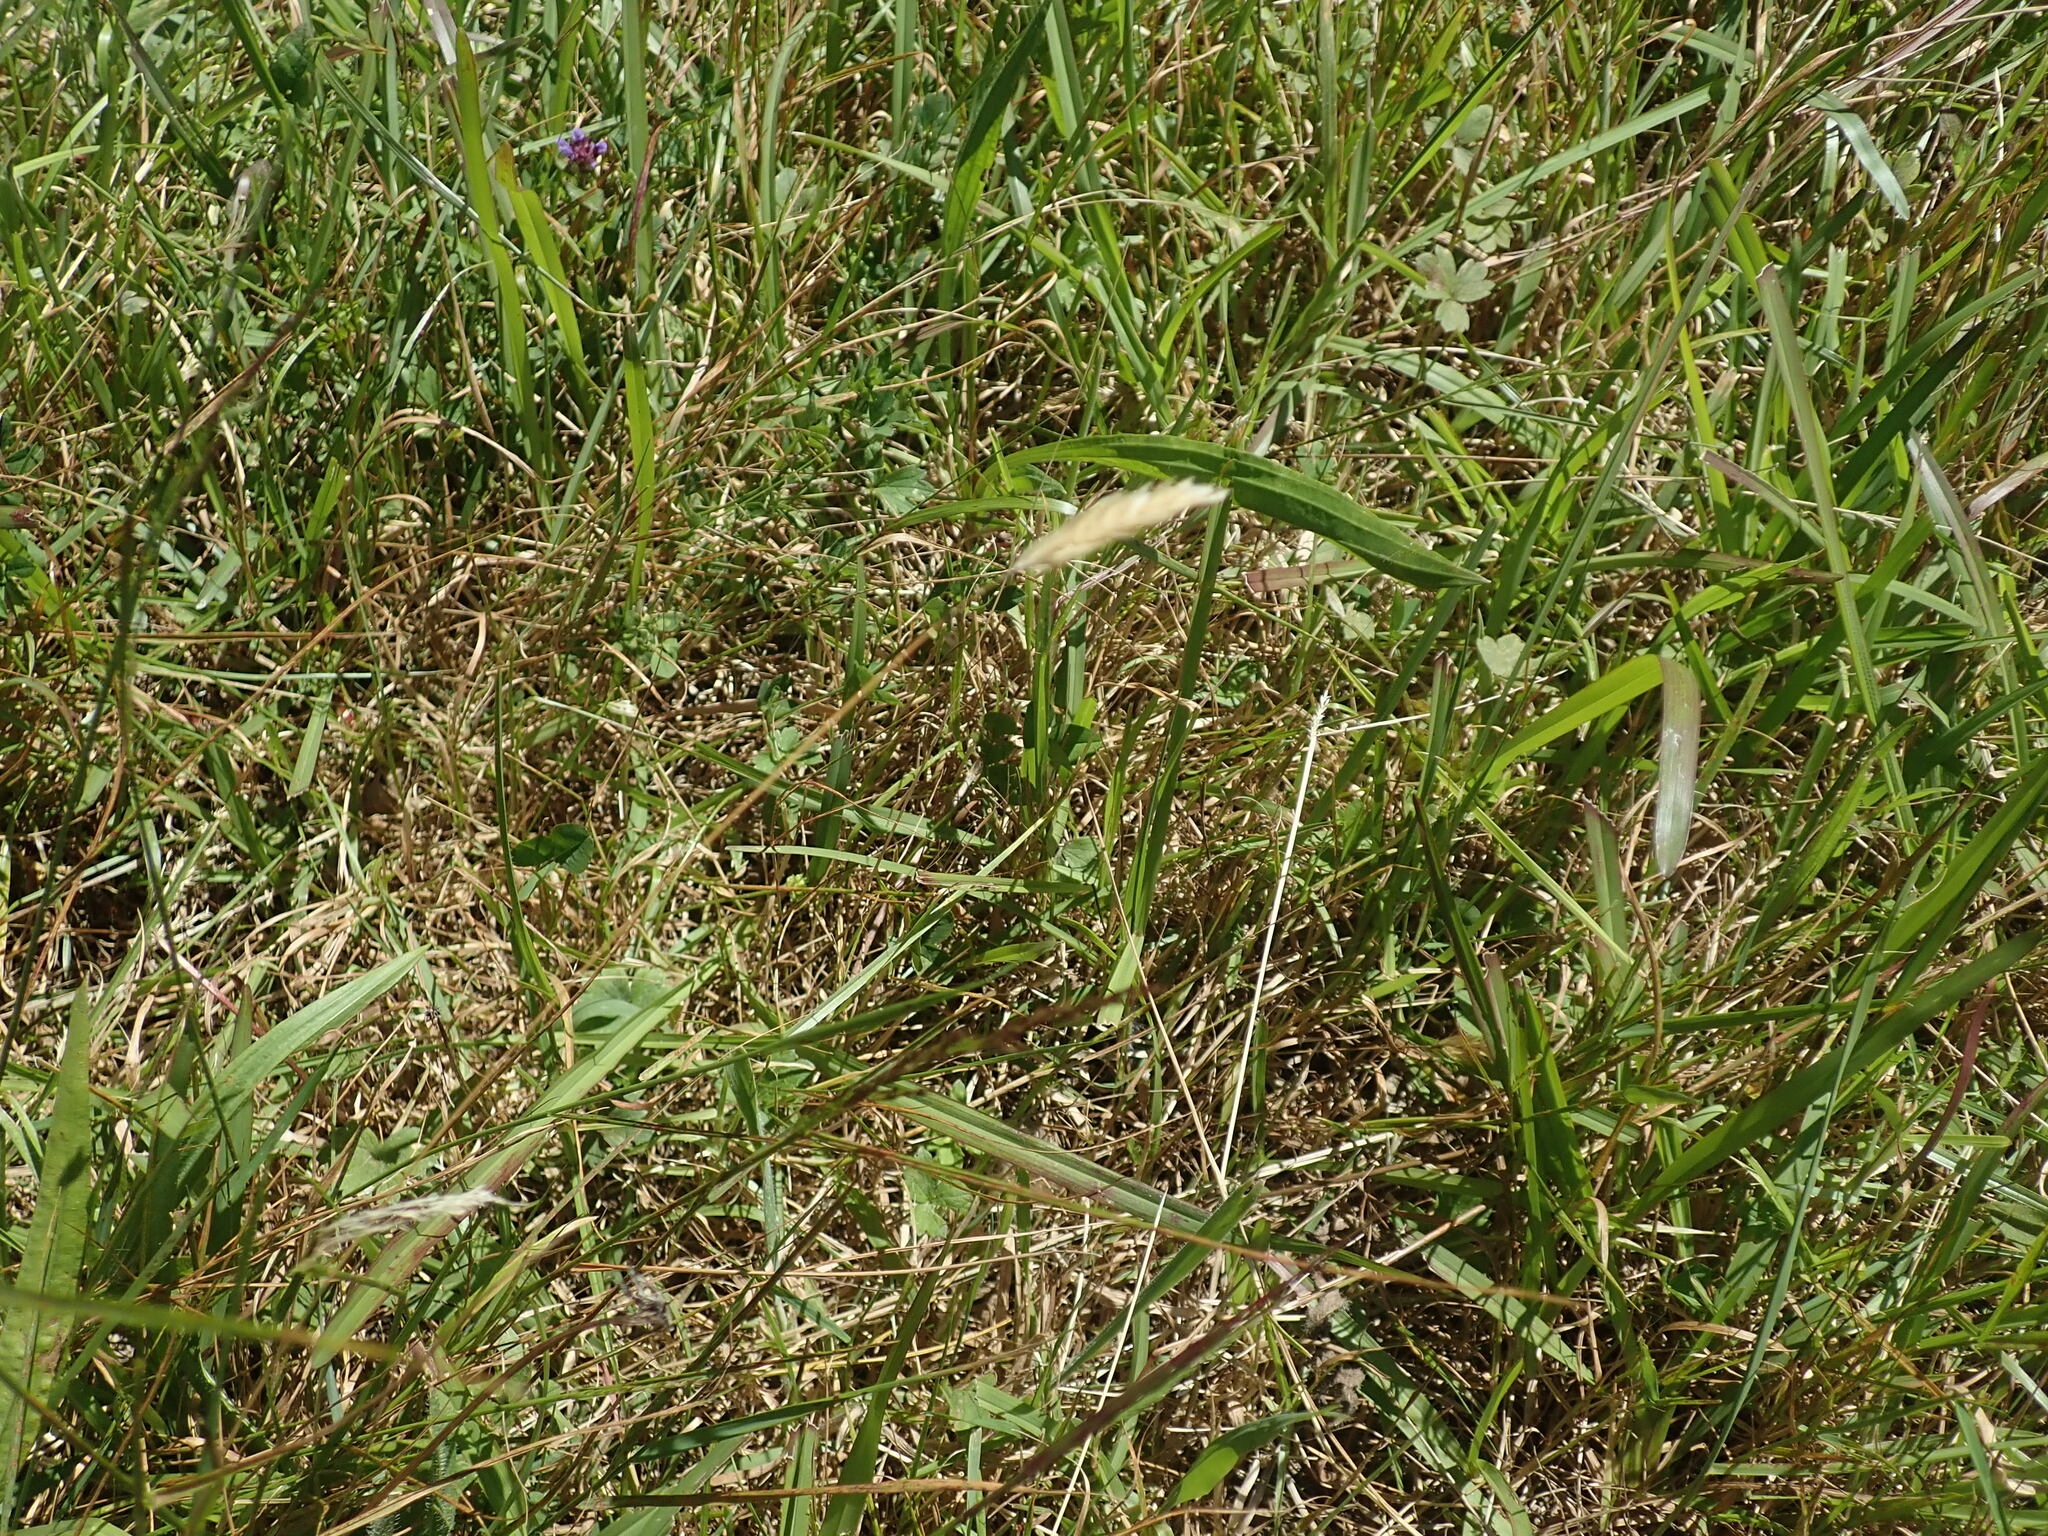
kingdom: Plantae
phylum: Tracheophyta
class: Liliopsida
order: Poales
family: Poaceae
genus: Anthoxanthum
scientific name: Anthoxanthum odoratum
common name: Sweet vernalgrass
